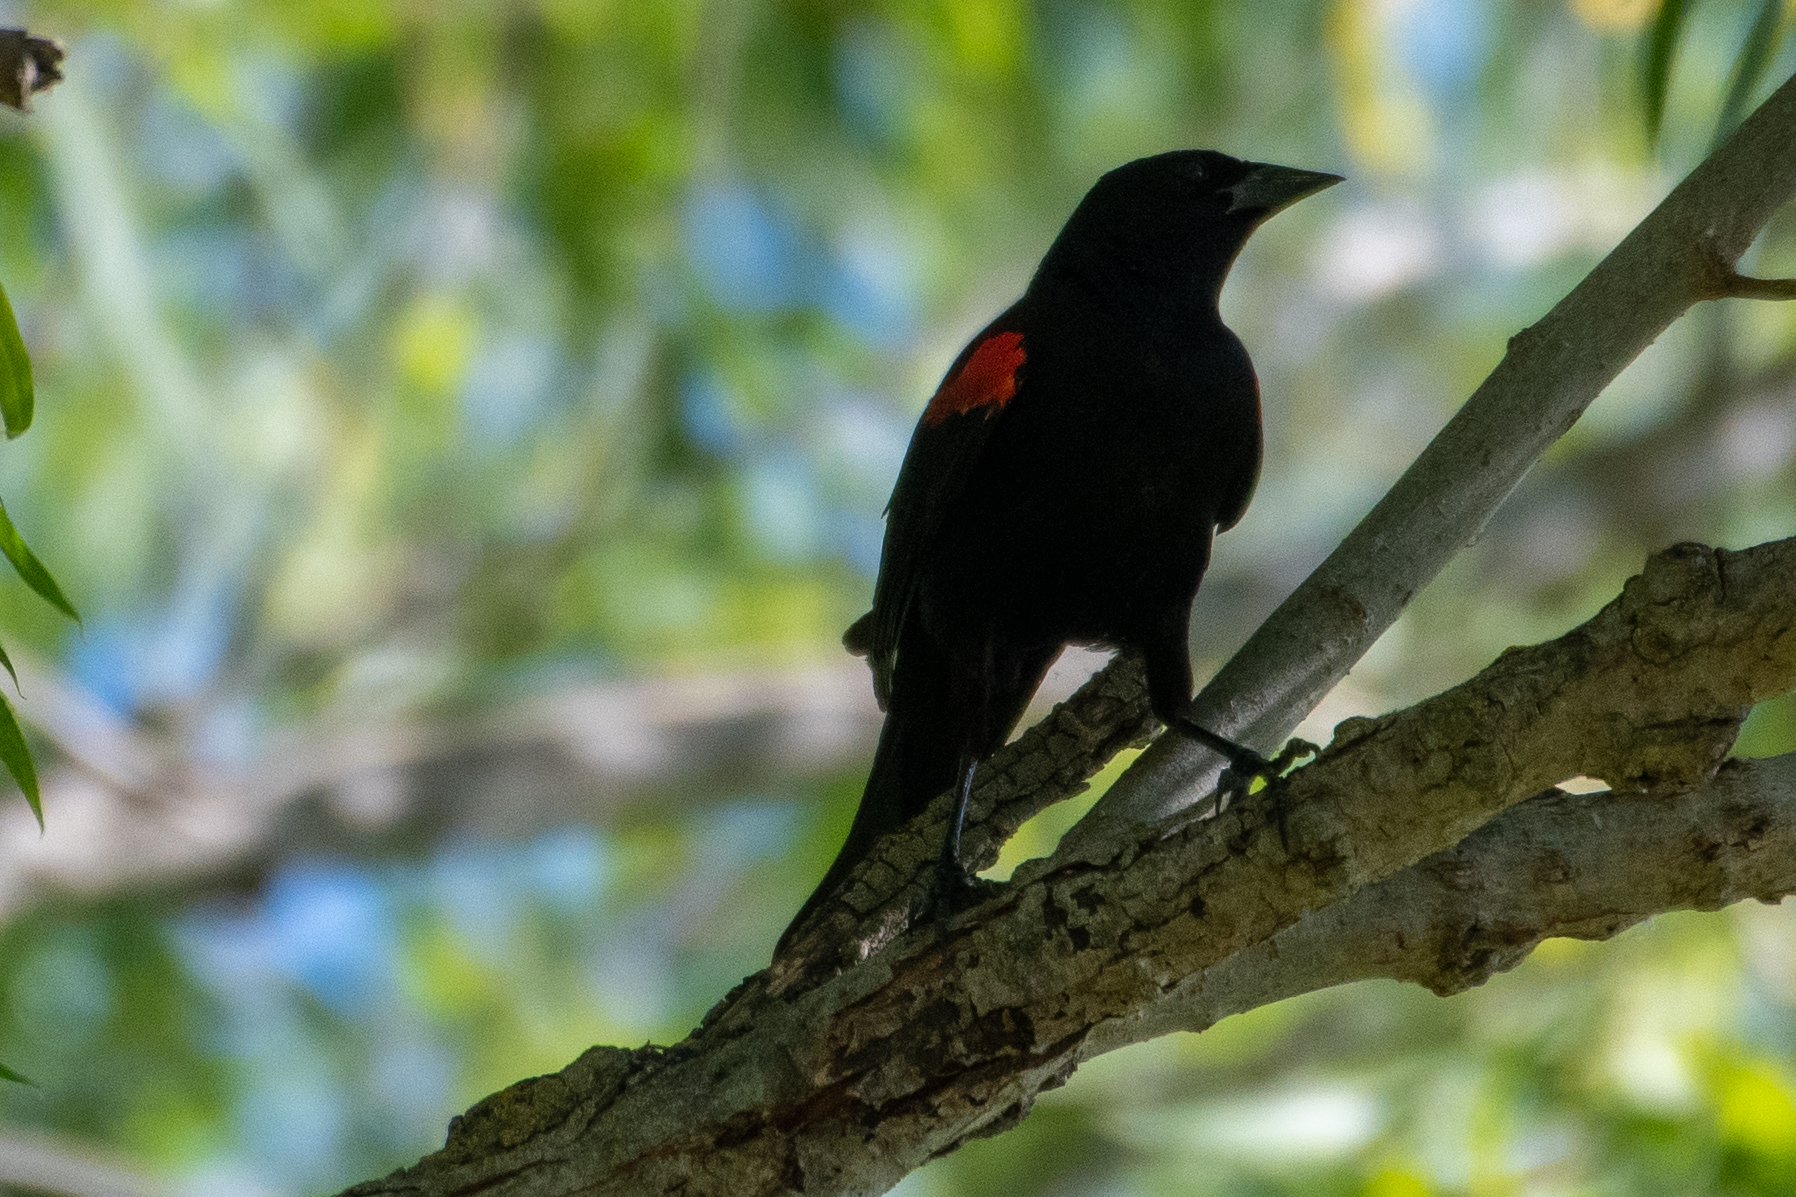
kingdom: Animalia
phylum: Chordata
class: Aves
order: Passeriformes
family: Icteridae
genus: Agelaius
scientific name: Agelaius phoeniceus
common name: Red-winged blackbird
